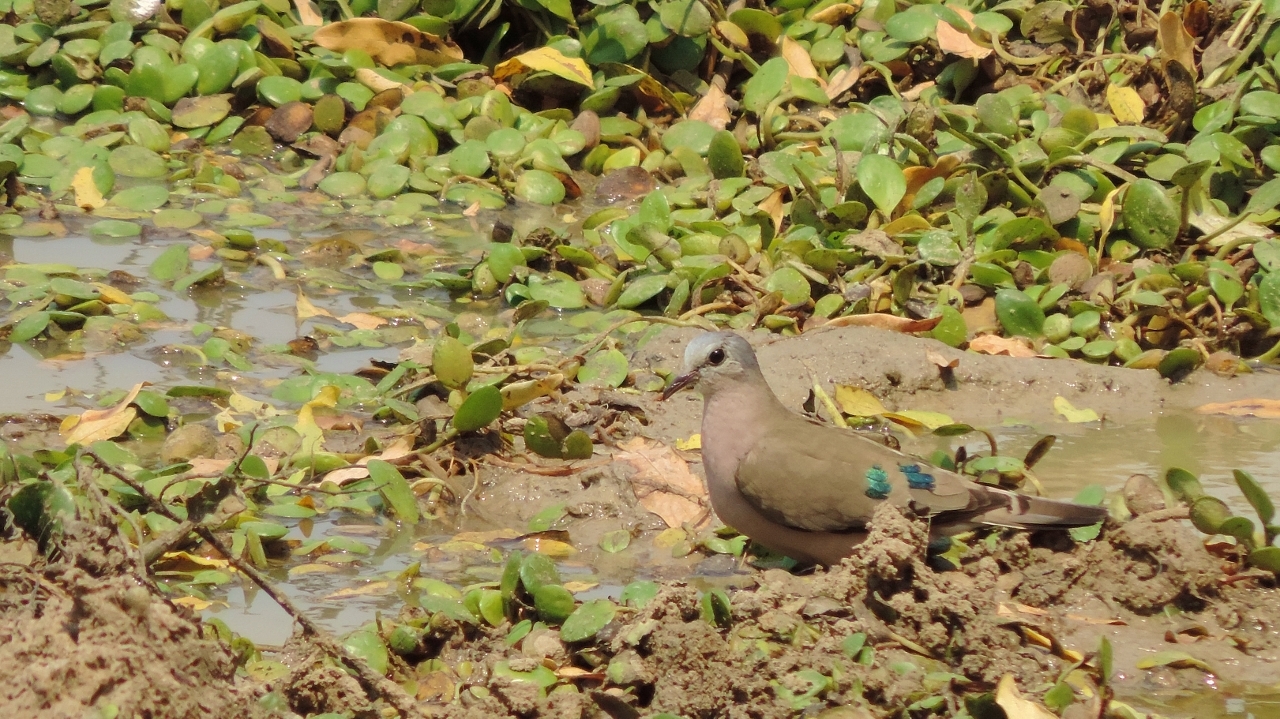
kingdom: Animalia
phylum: Chordata
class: Aves
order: Columbiformes
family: Columbidae
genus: Turtur
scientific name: Turtur chalcospilos
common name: Emerald-spotted wood dove
